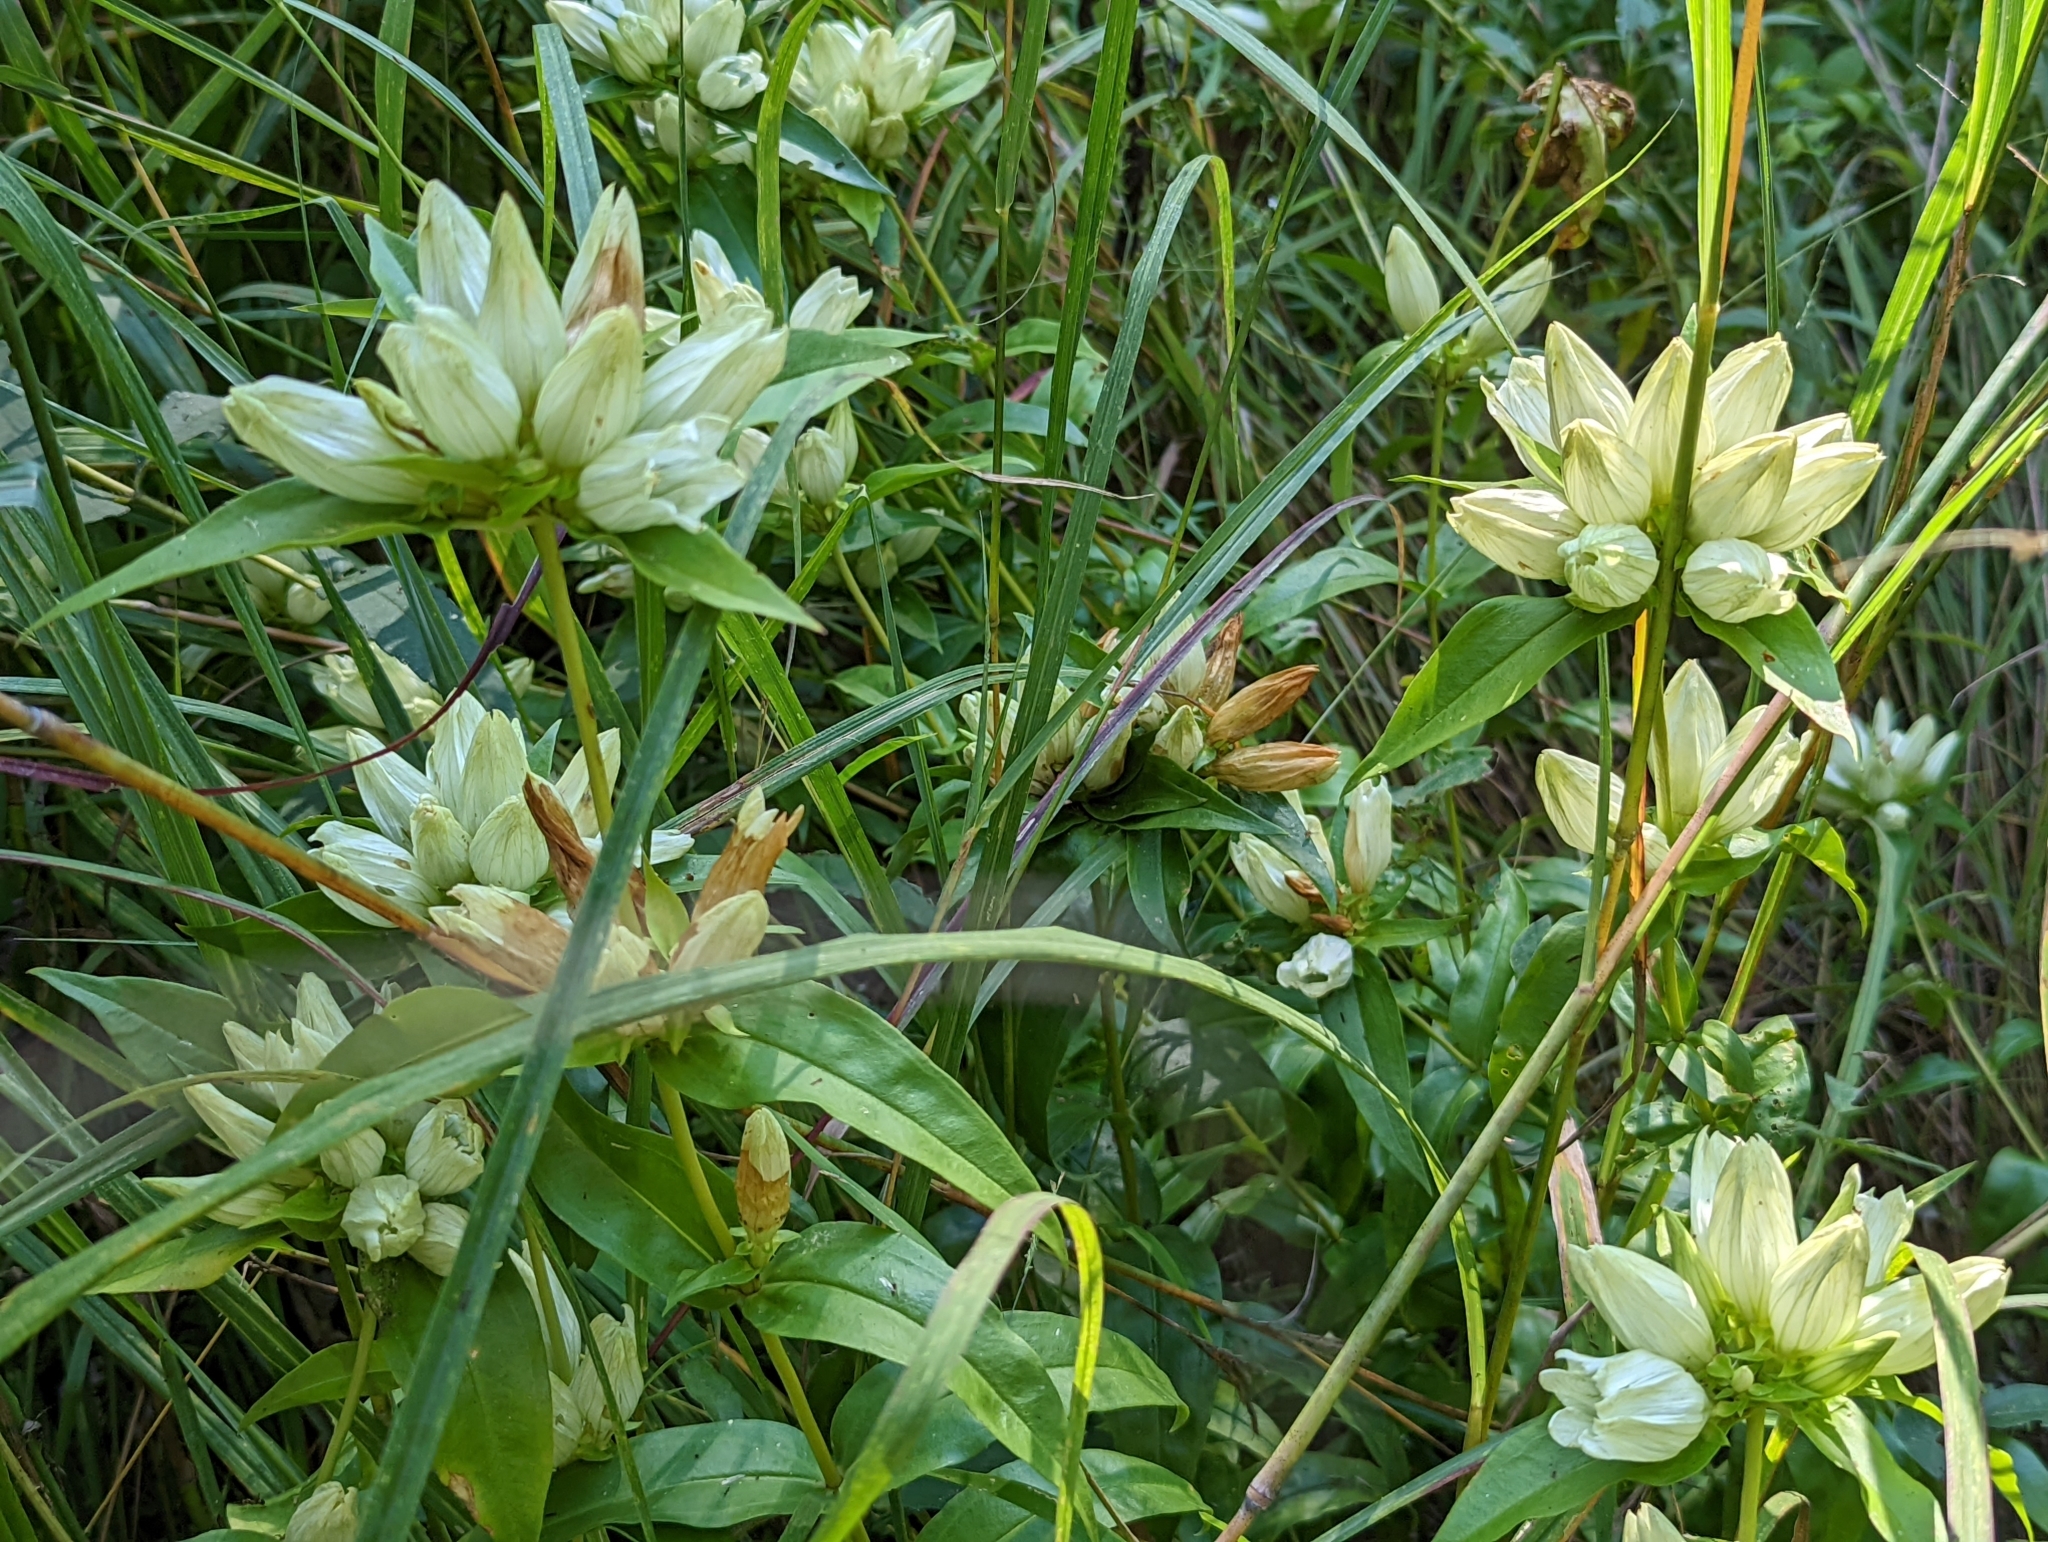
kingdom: Plantae
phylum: Tracheophyta
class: Magnoliopsida
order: Gentianales
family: Gentianaceae
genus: Gentiana
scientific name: Gentiana alba
